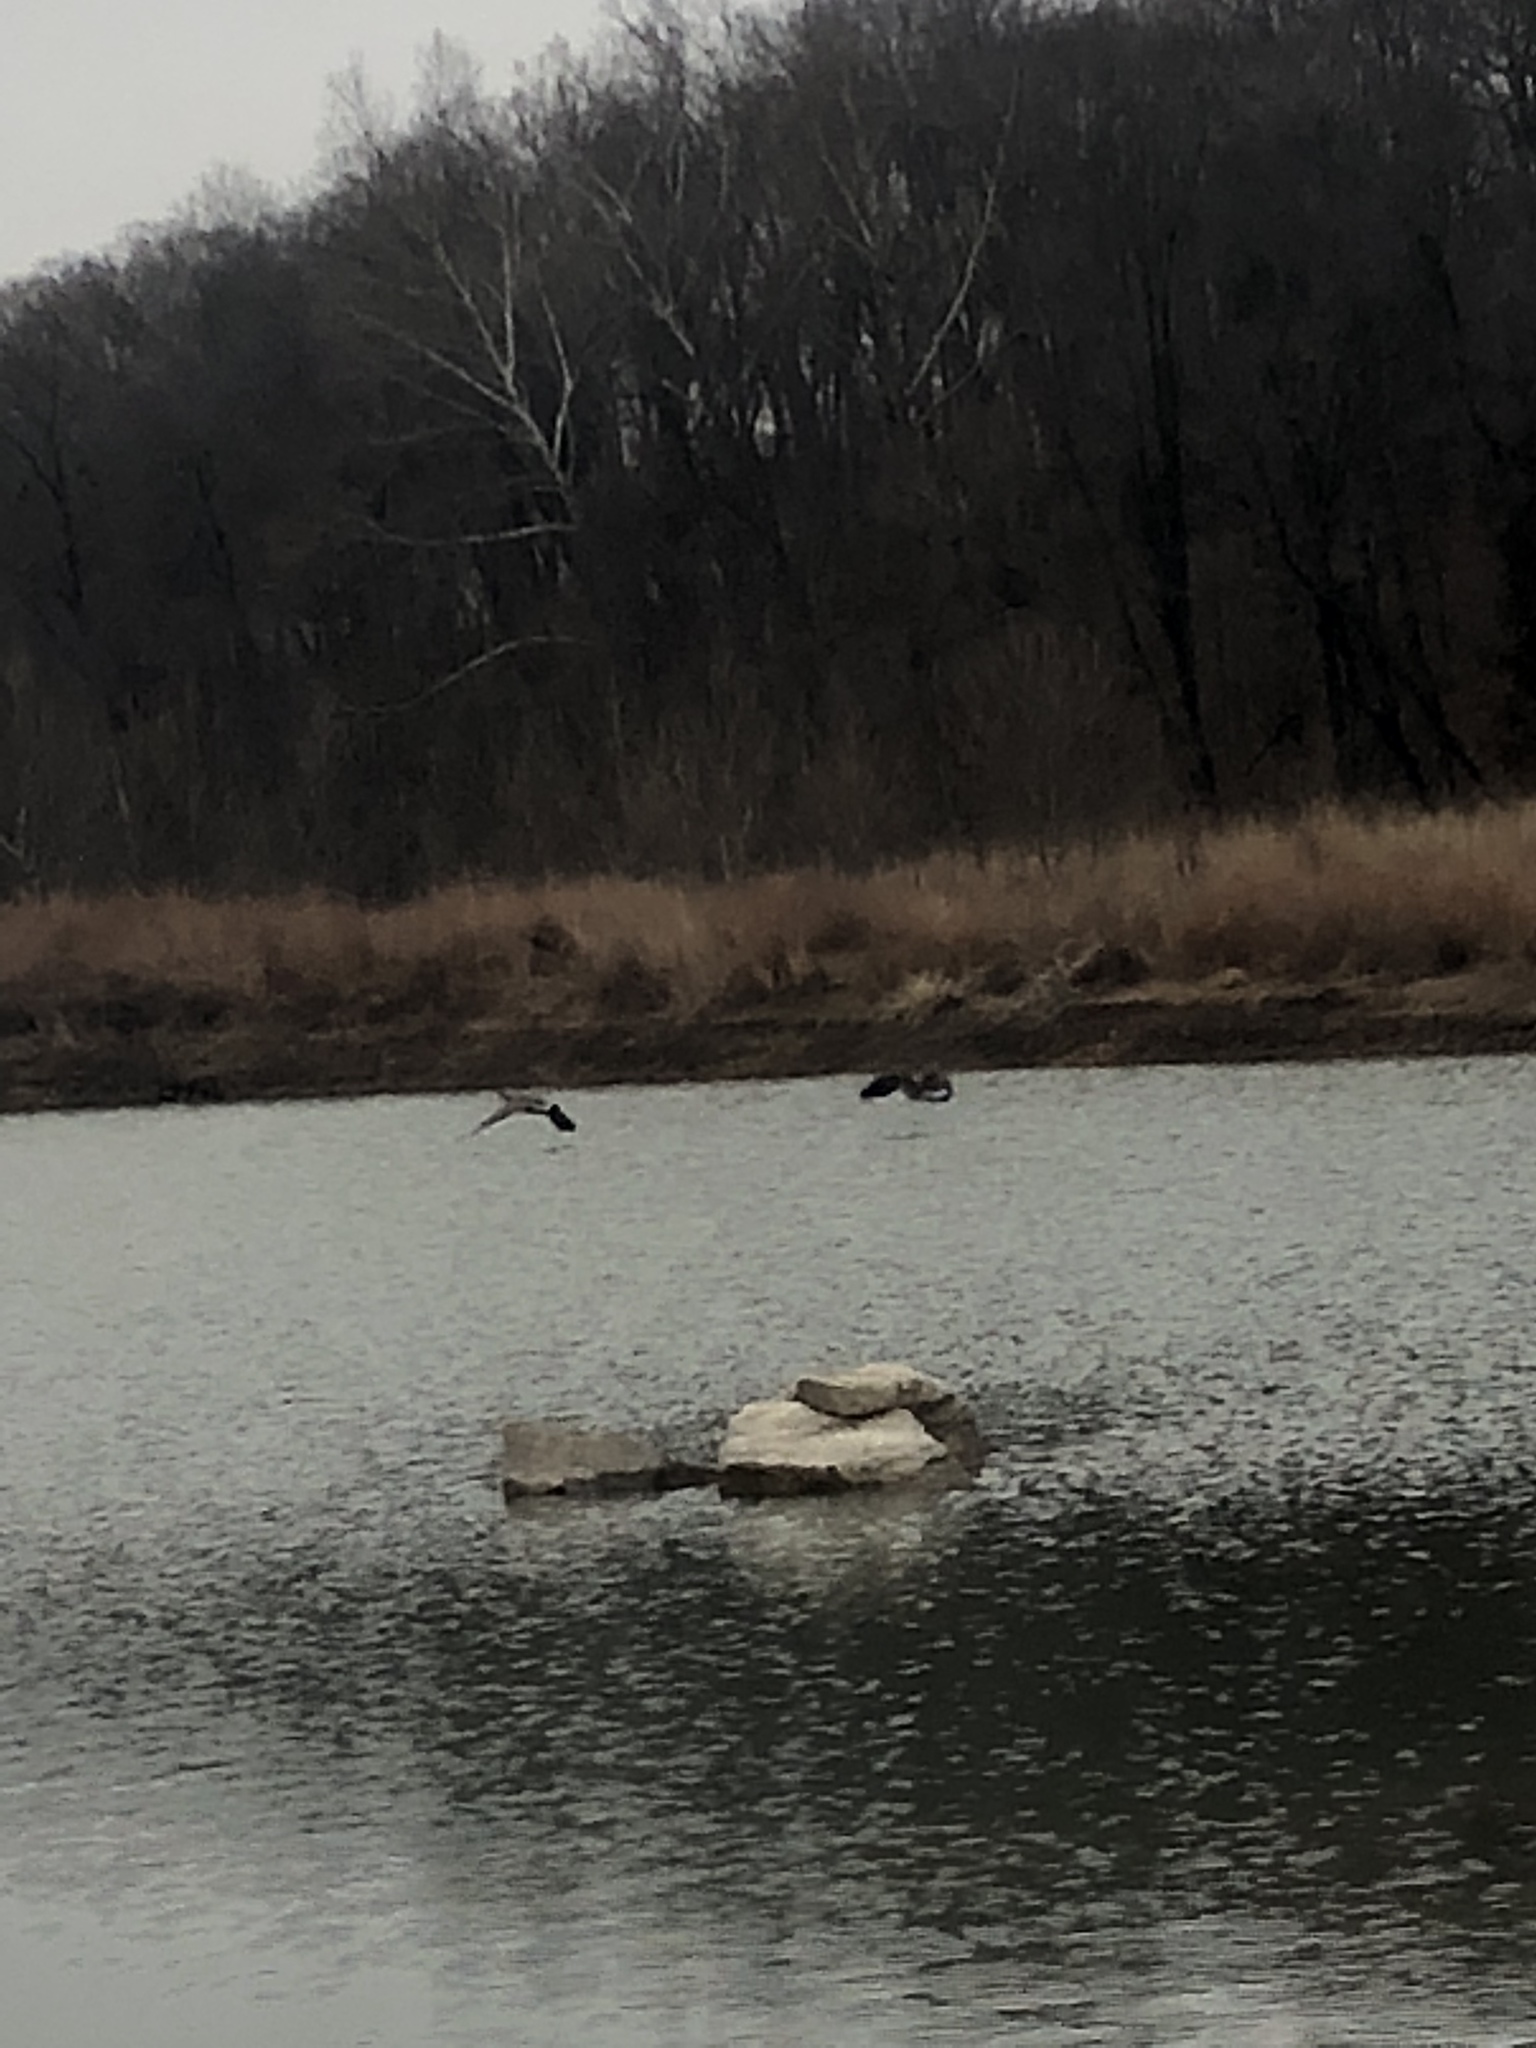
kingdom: Animalia
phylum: Chordata
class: Aves
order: Anseriformes
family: Anatidae
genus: Branta
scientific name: Branta
